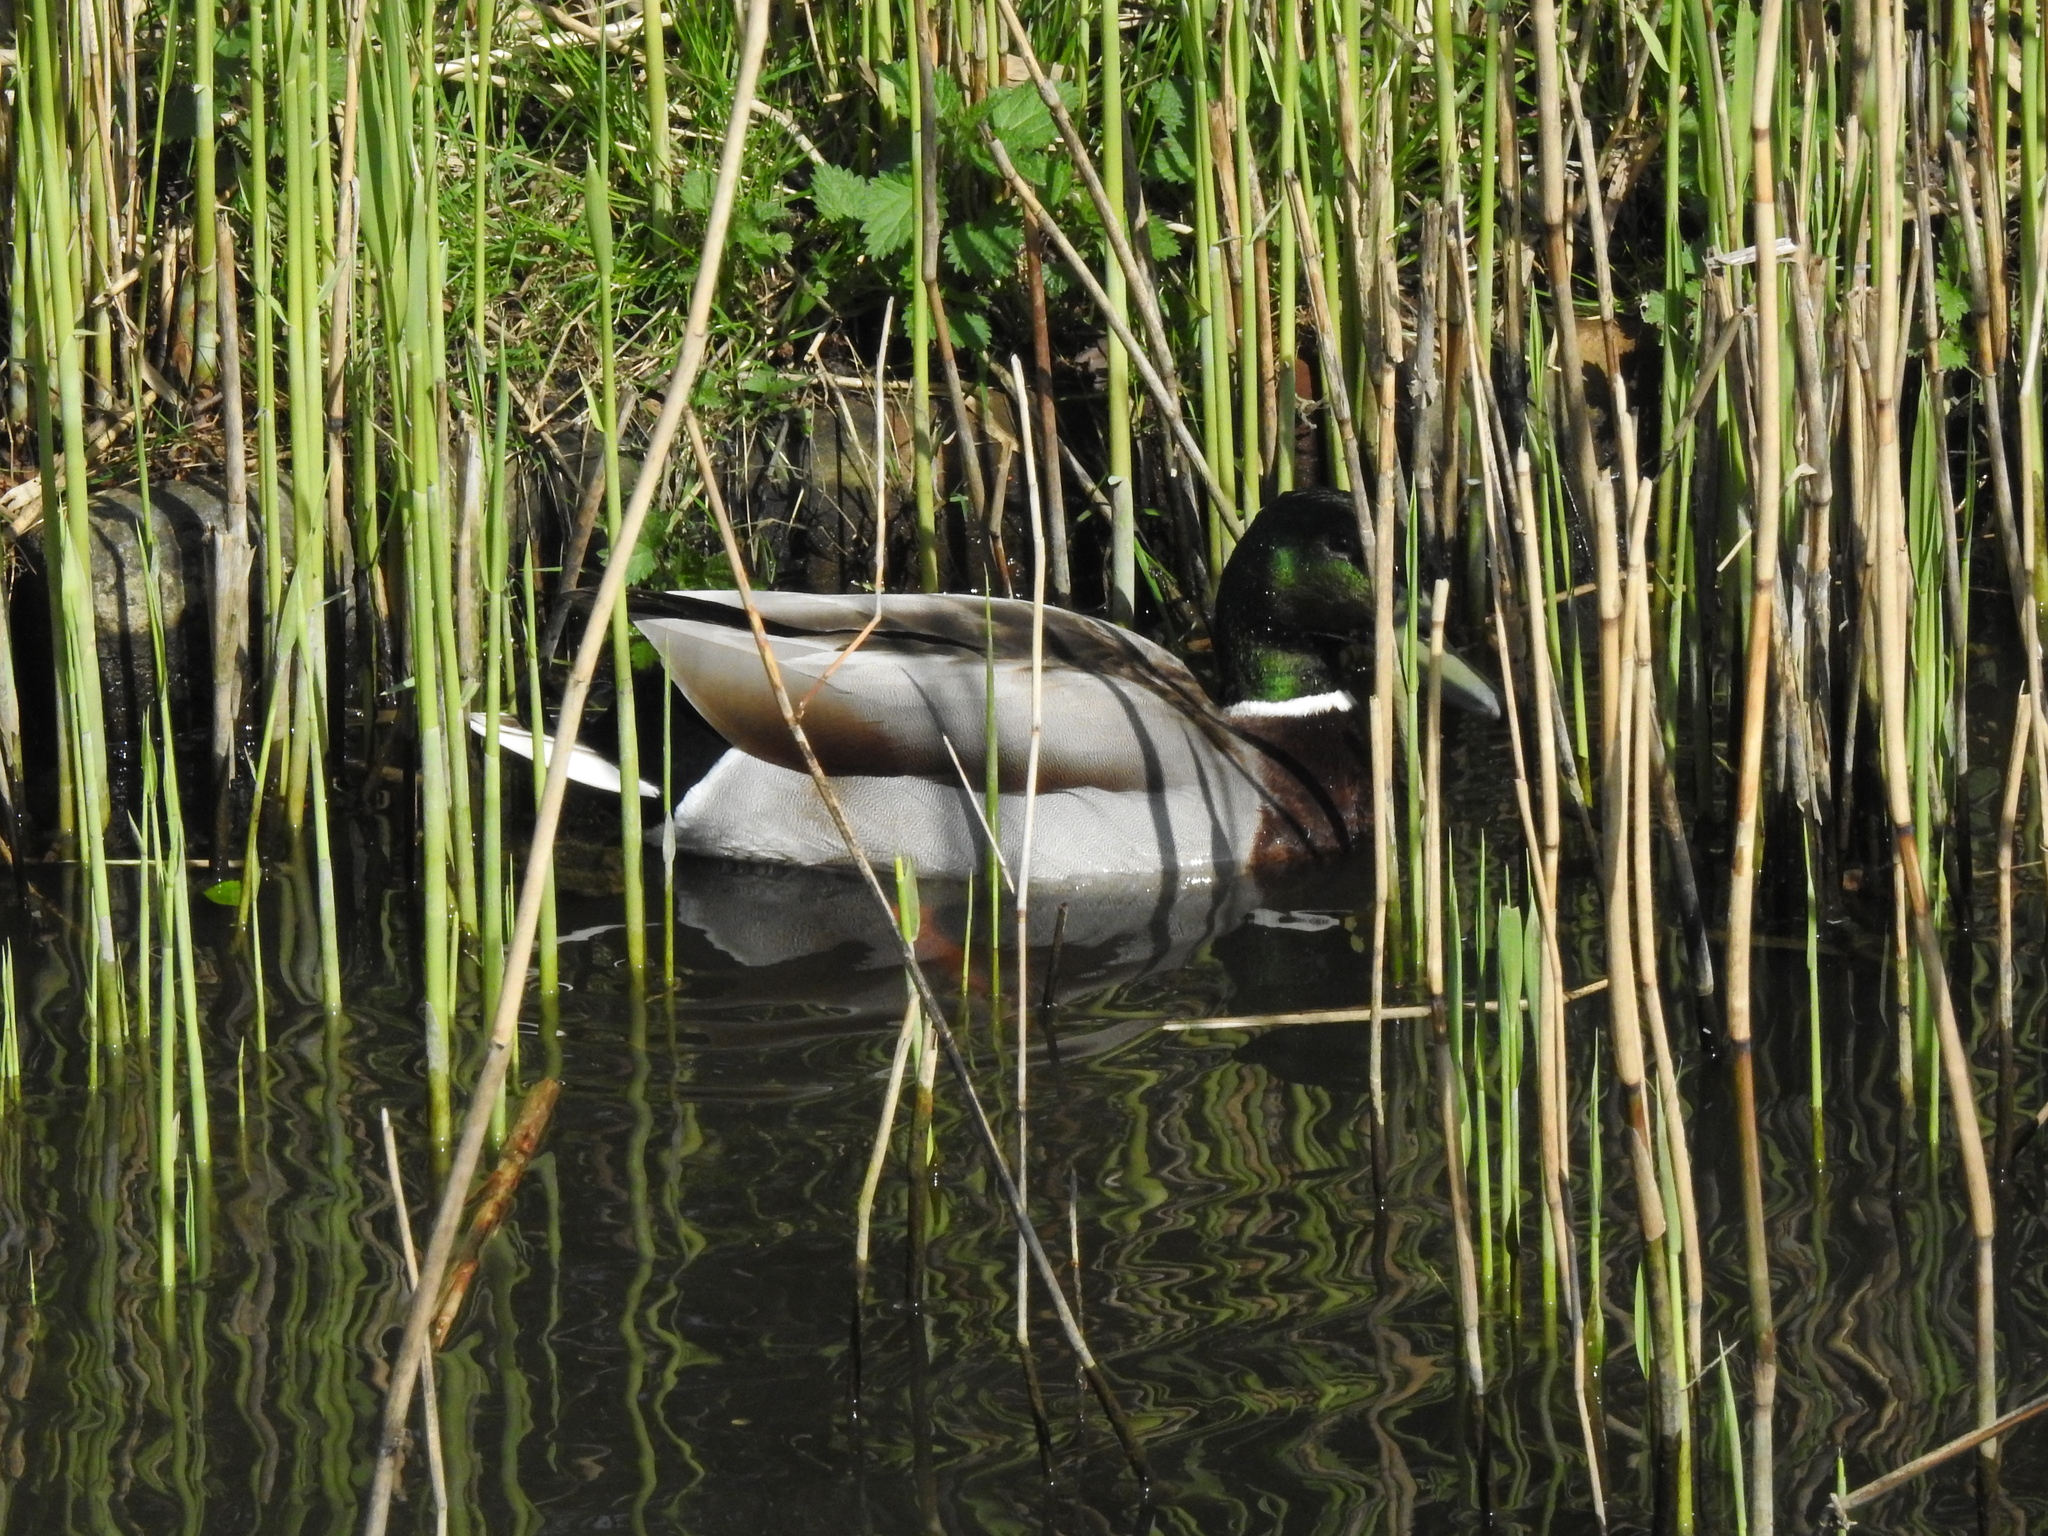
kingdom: Animalia
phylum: Chordata
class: Aves
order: Anseriformes
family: Anatidae
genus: Anas
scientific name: Anas platyrhynchos
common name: Mallard
